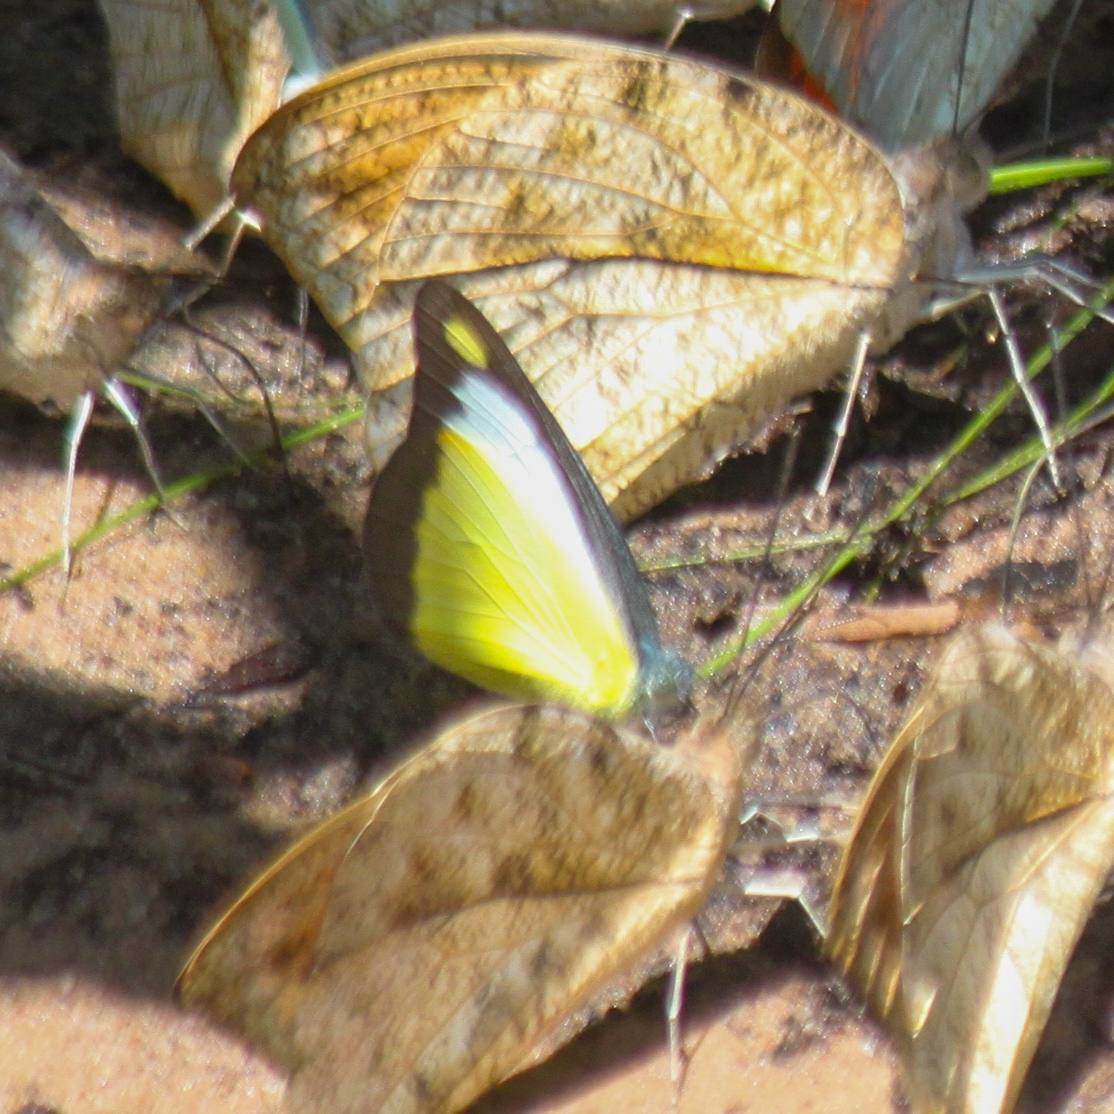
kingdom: Animalia
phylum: Arthropoda
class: Insecta
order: Lepidoptera
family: Pieridae
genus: Appias
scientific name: Appias lyncida
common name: Chocolate albatross
